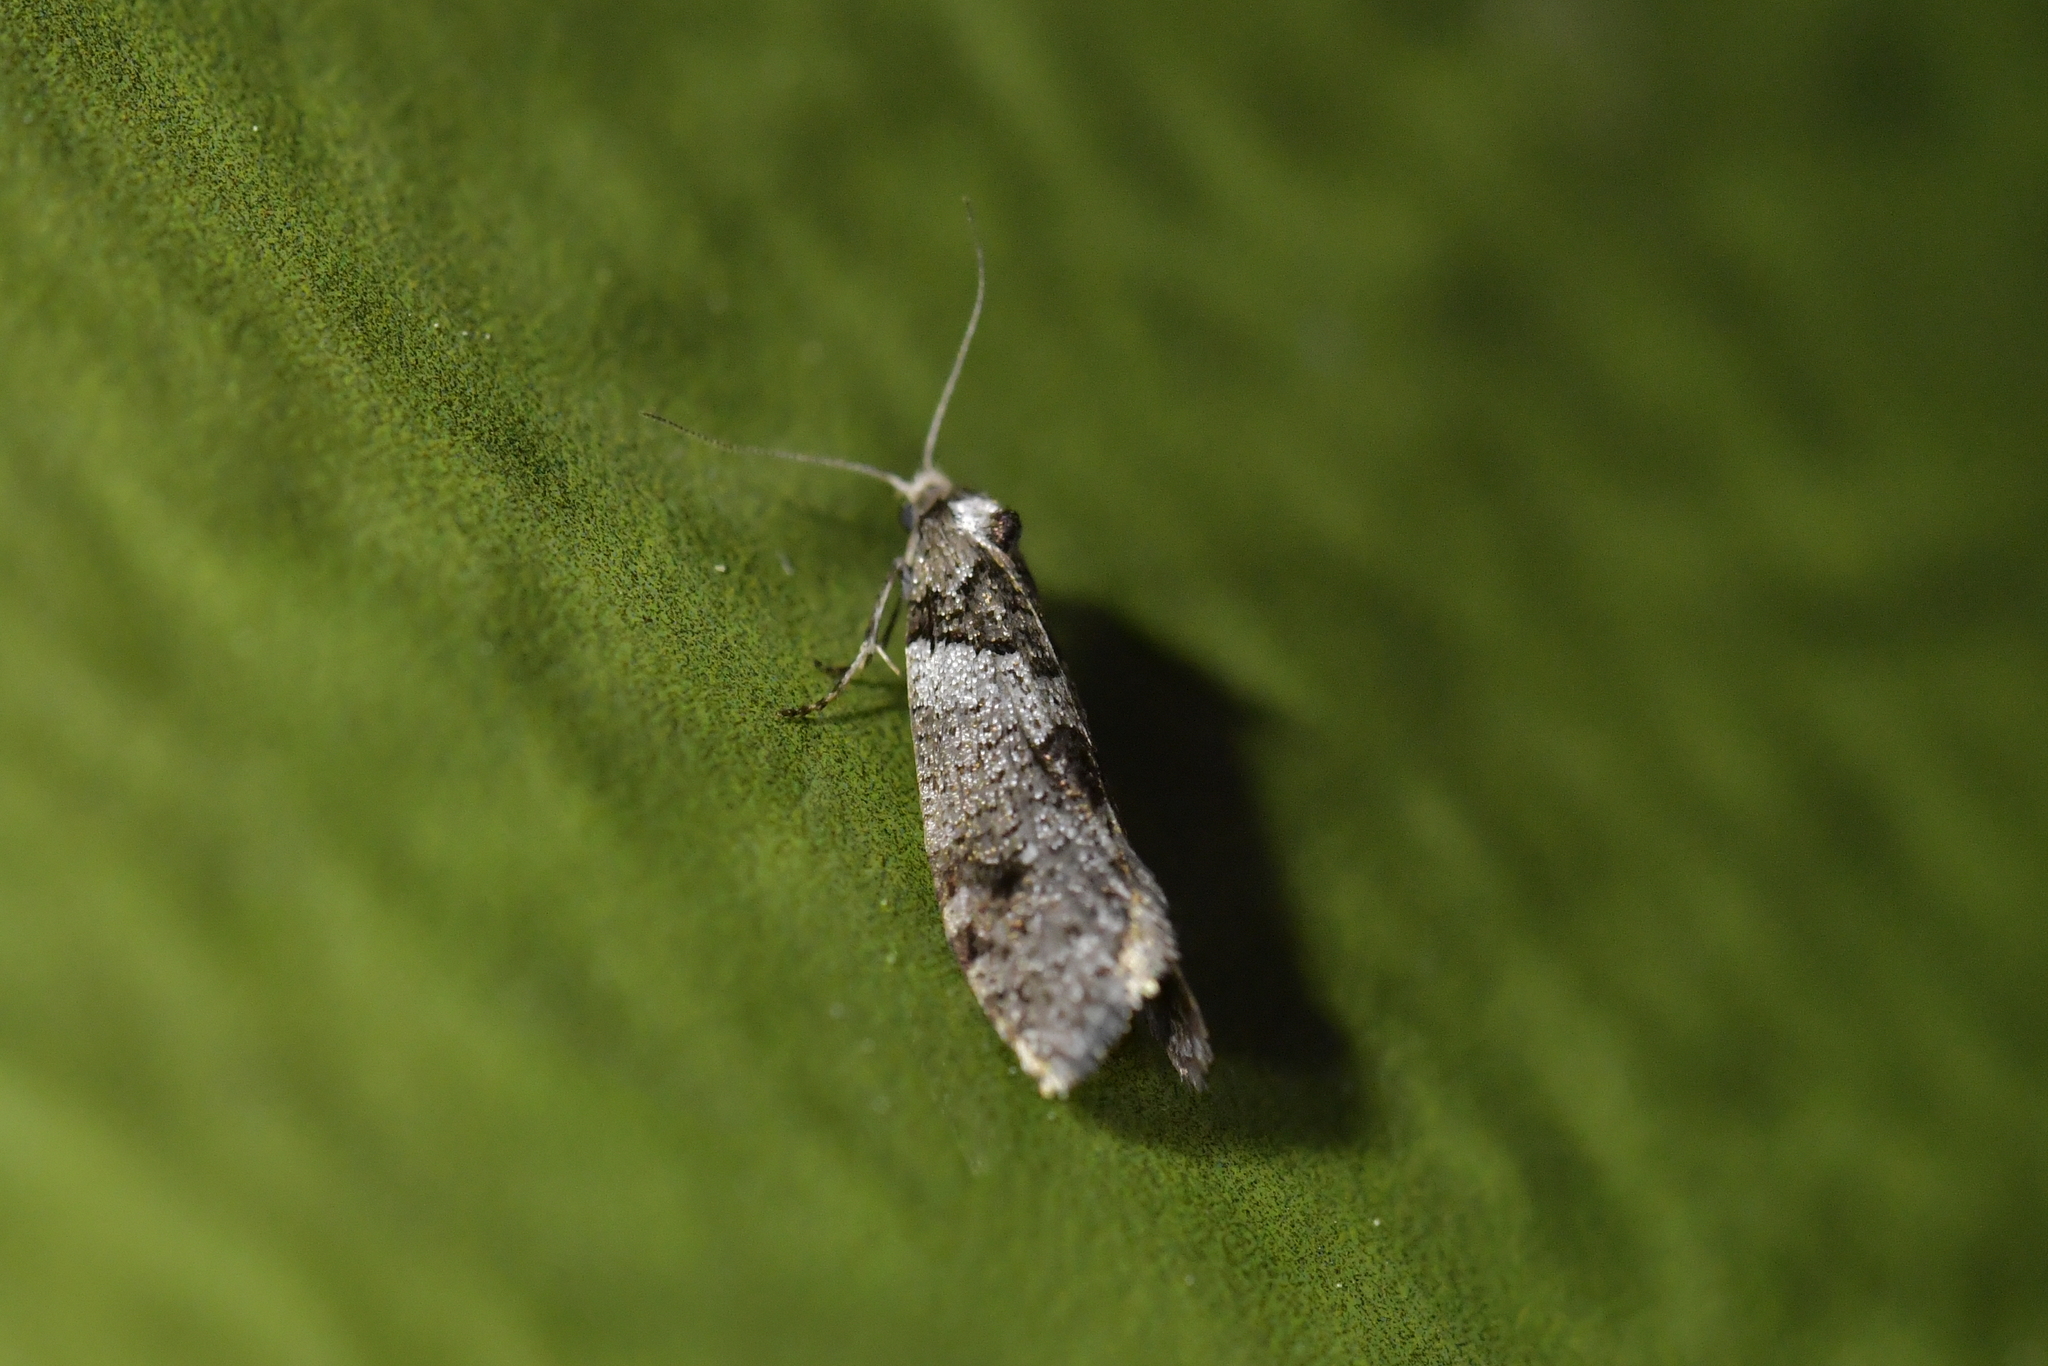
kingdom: Animalia
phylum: Arthropoda
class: Insecta
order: Lepidoptera
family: Psychidae
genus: Lepidoscia
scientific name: Lepidoscia heliochares
